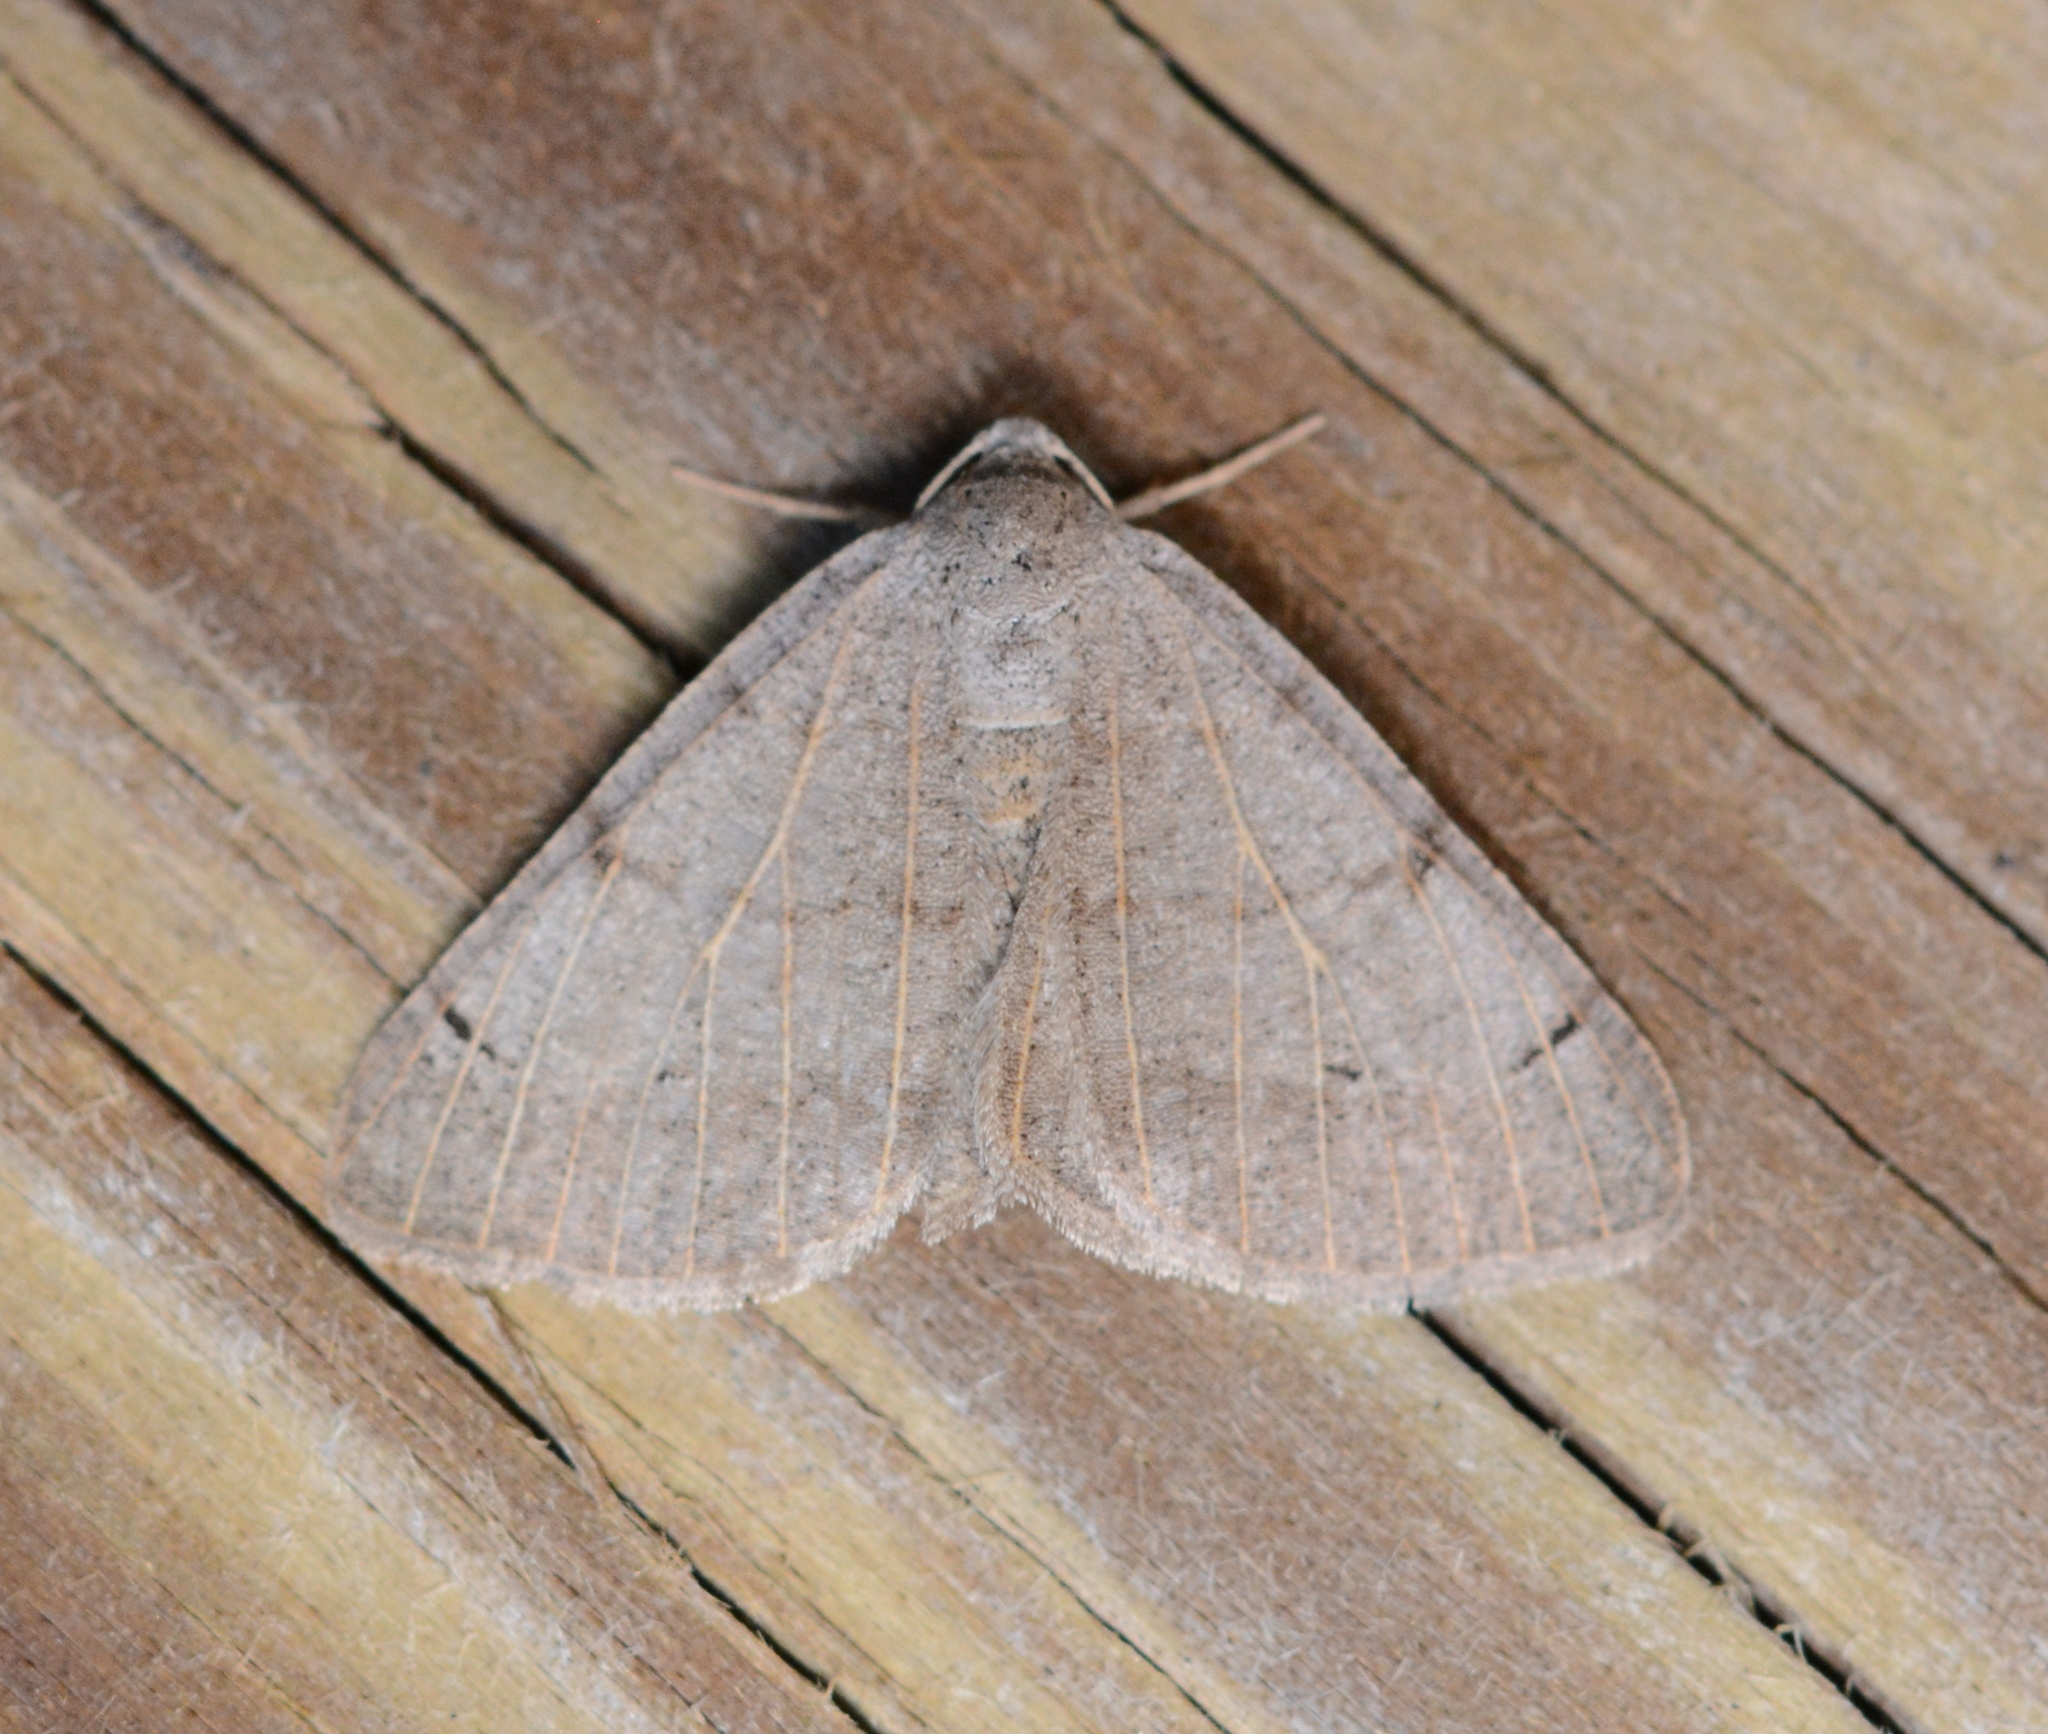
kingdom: Animalia
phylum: Arthropoda
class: Insecta
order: Lepidoptera
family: Geometridae
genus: Isturgia
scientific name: Isturgia dislocaria
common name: Pale-viened enconista
